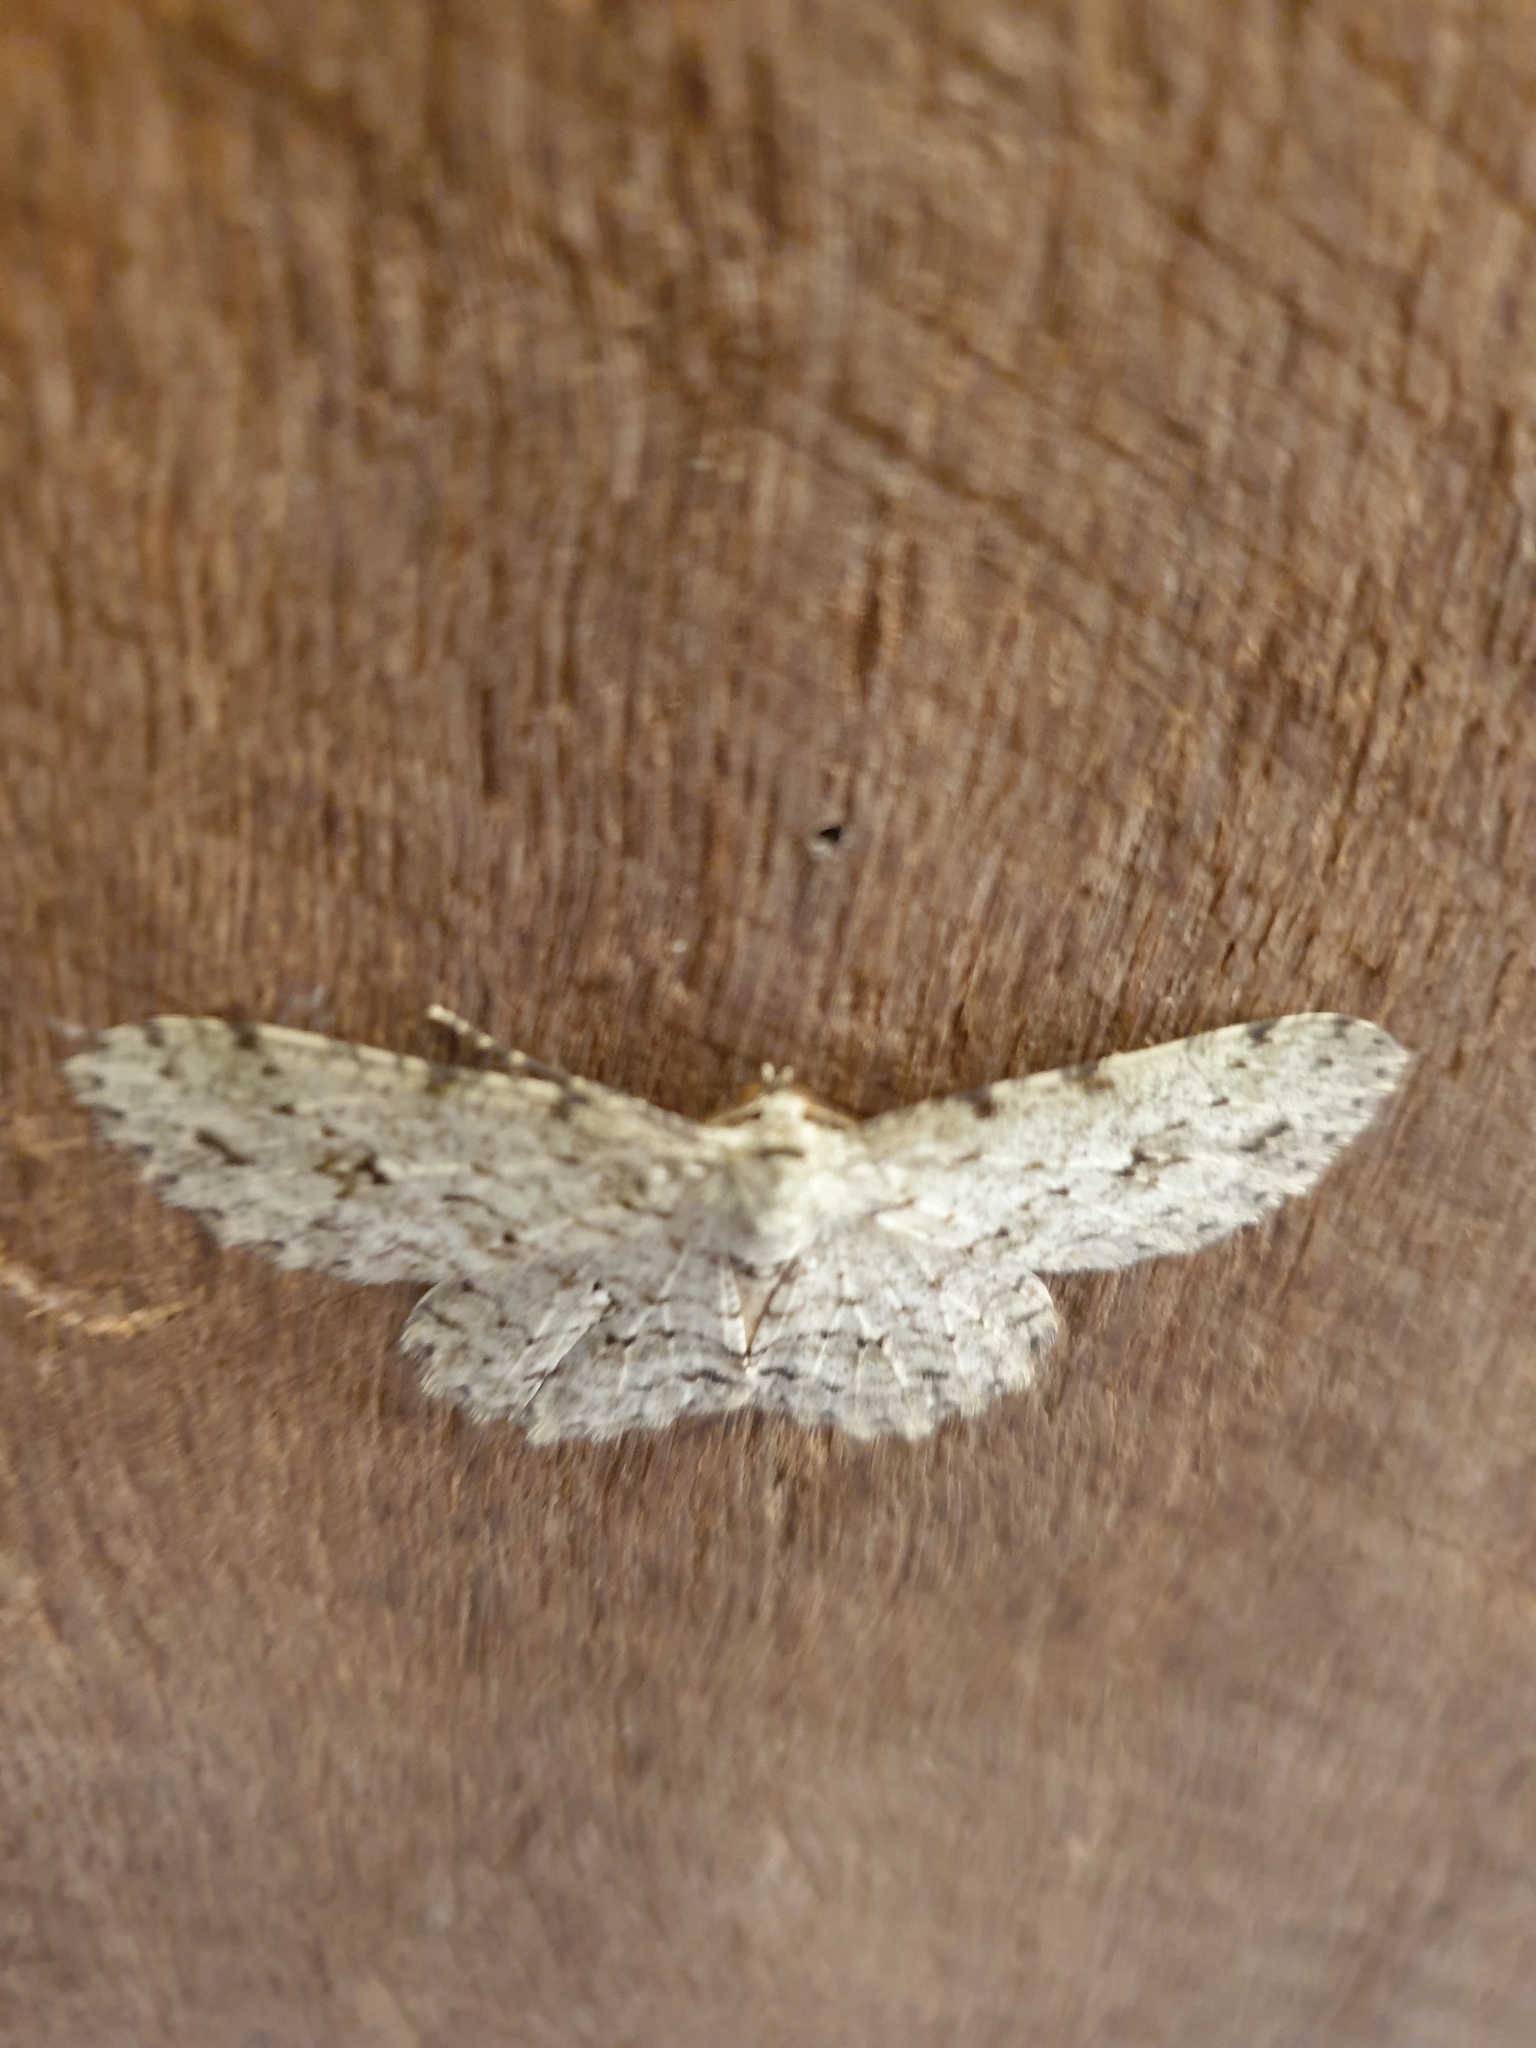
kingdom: Animalia
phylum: Arthropoda
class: Insecta
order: Lepidoptera
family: Geometridae
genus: Ectropis
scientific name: Ectropis bhurmitra
